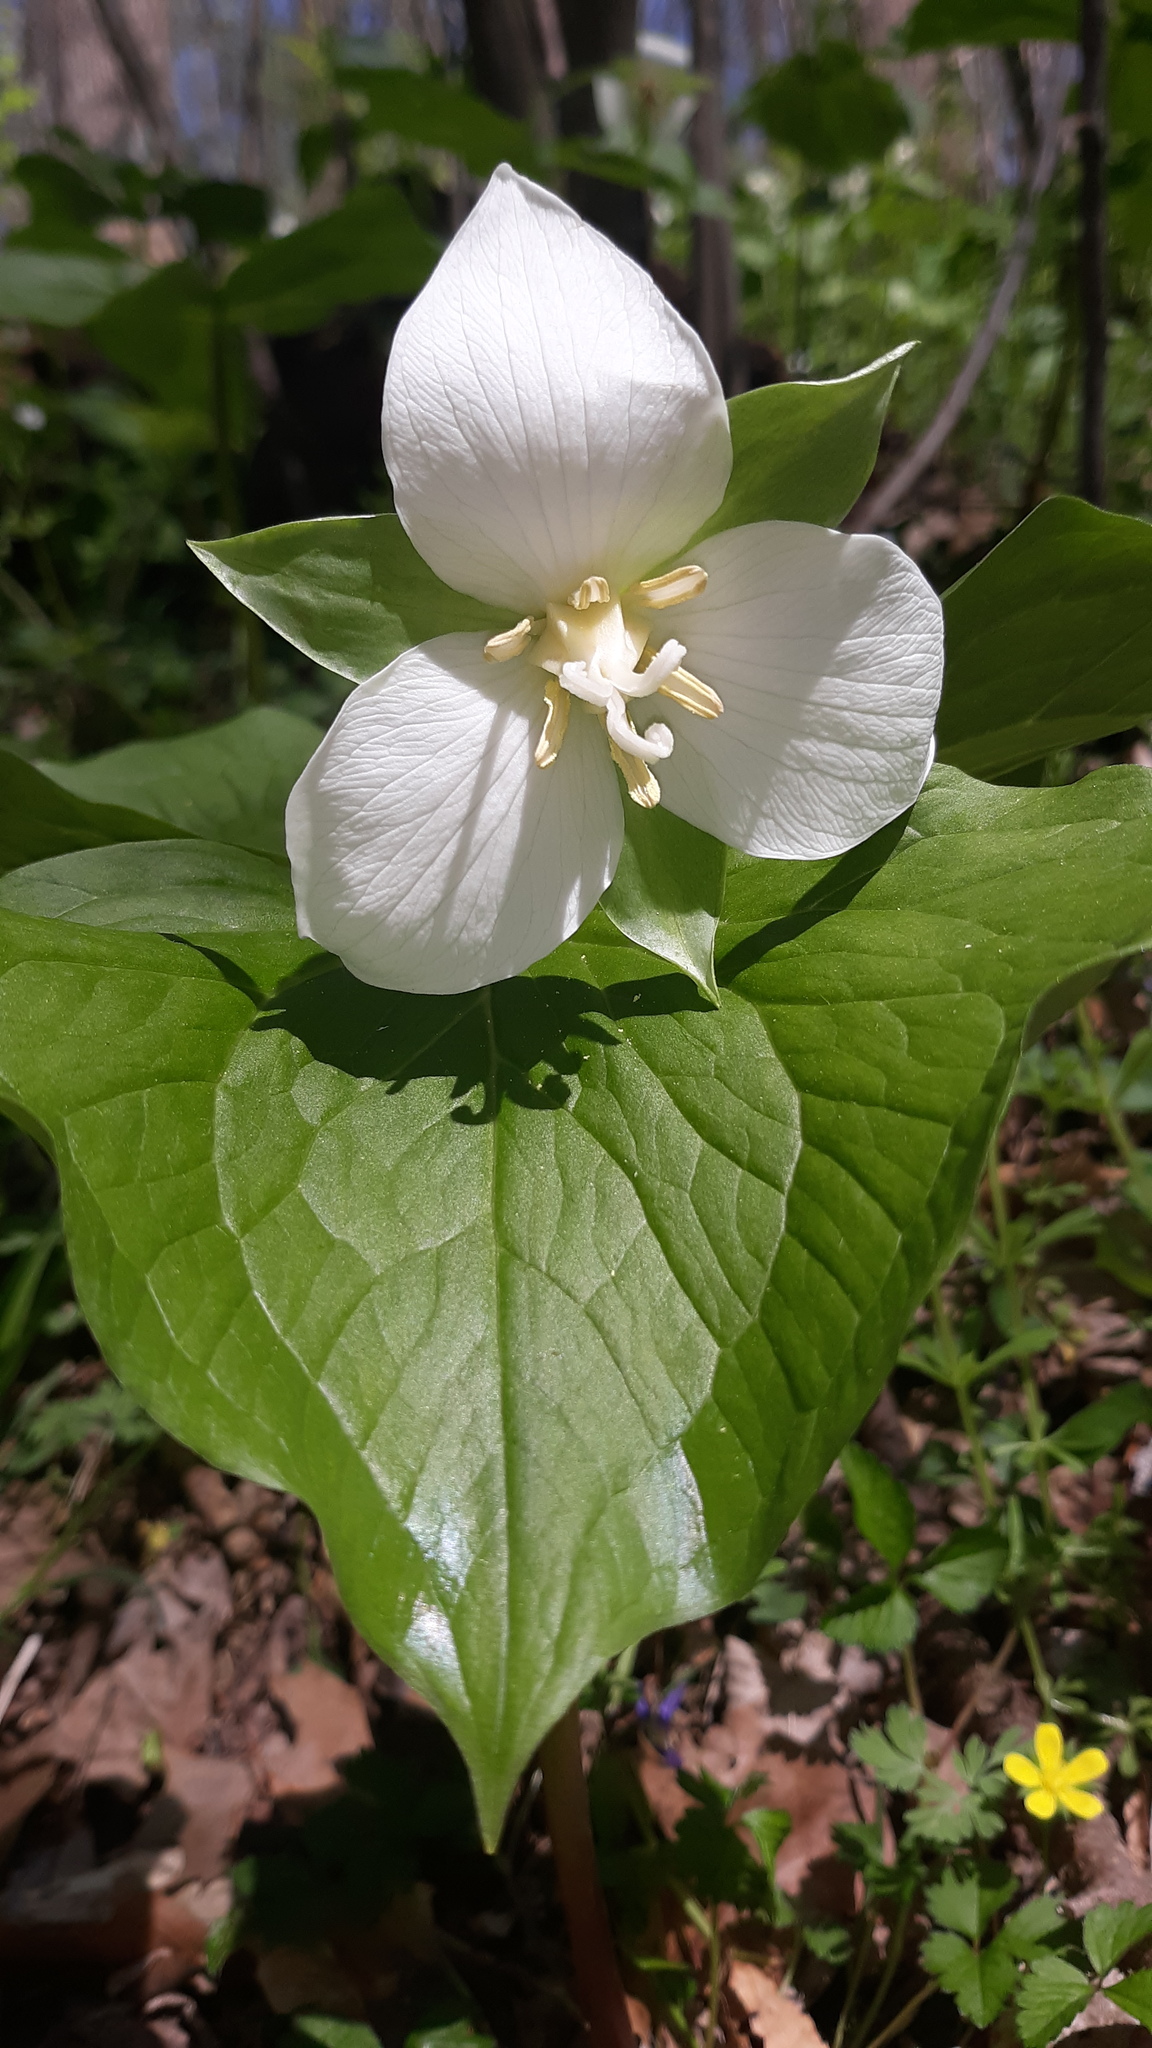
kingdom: Plantae
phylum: Tracheophyta
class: Liliopsida
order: Liliales
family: Melanthiaceae
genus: Trillium
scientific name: Trillium flexipes
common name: Drooping trillium
